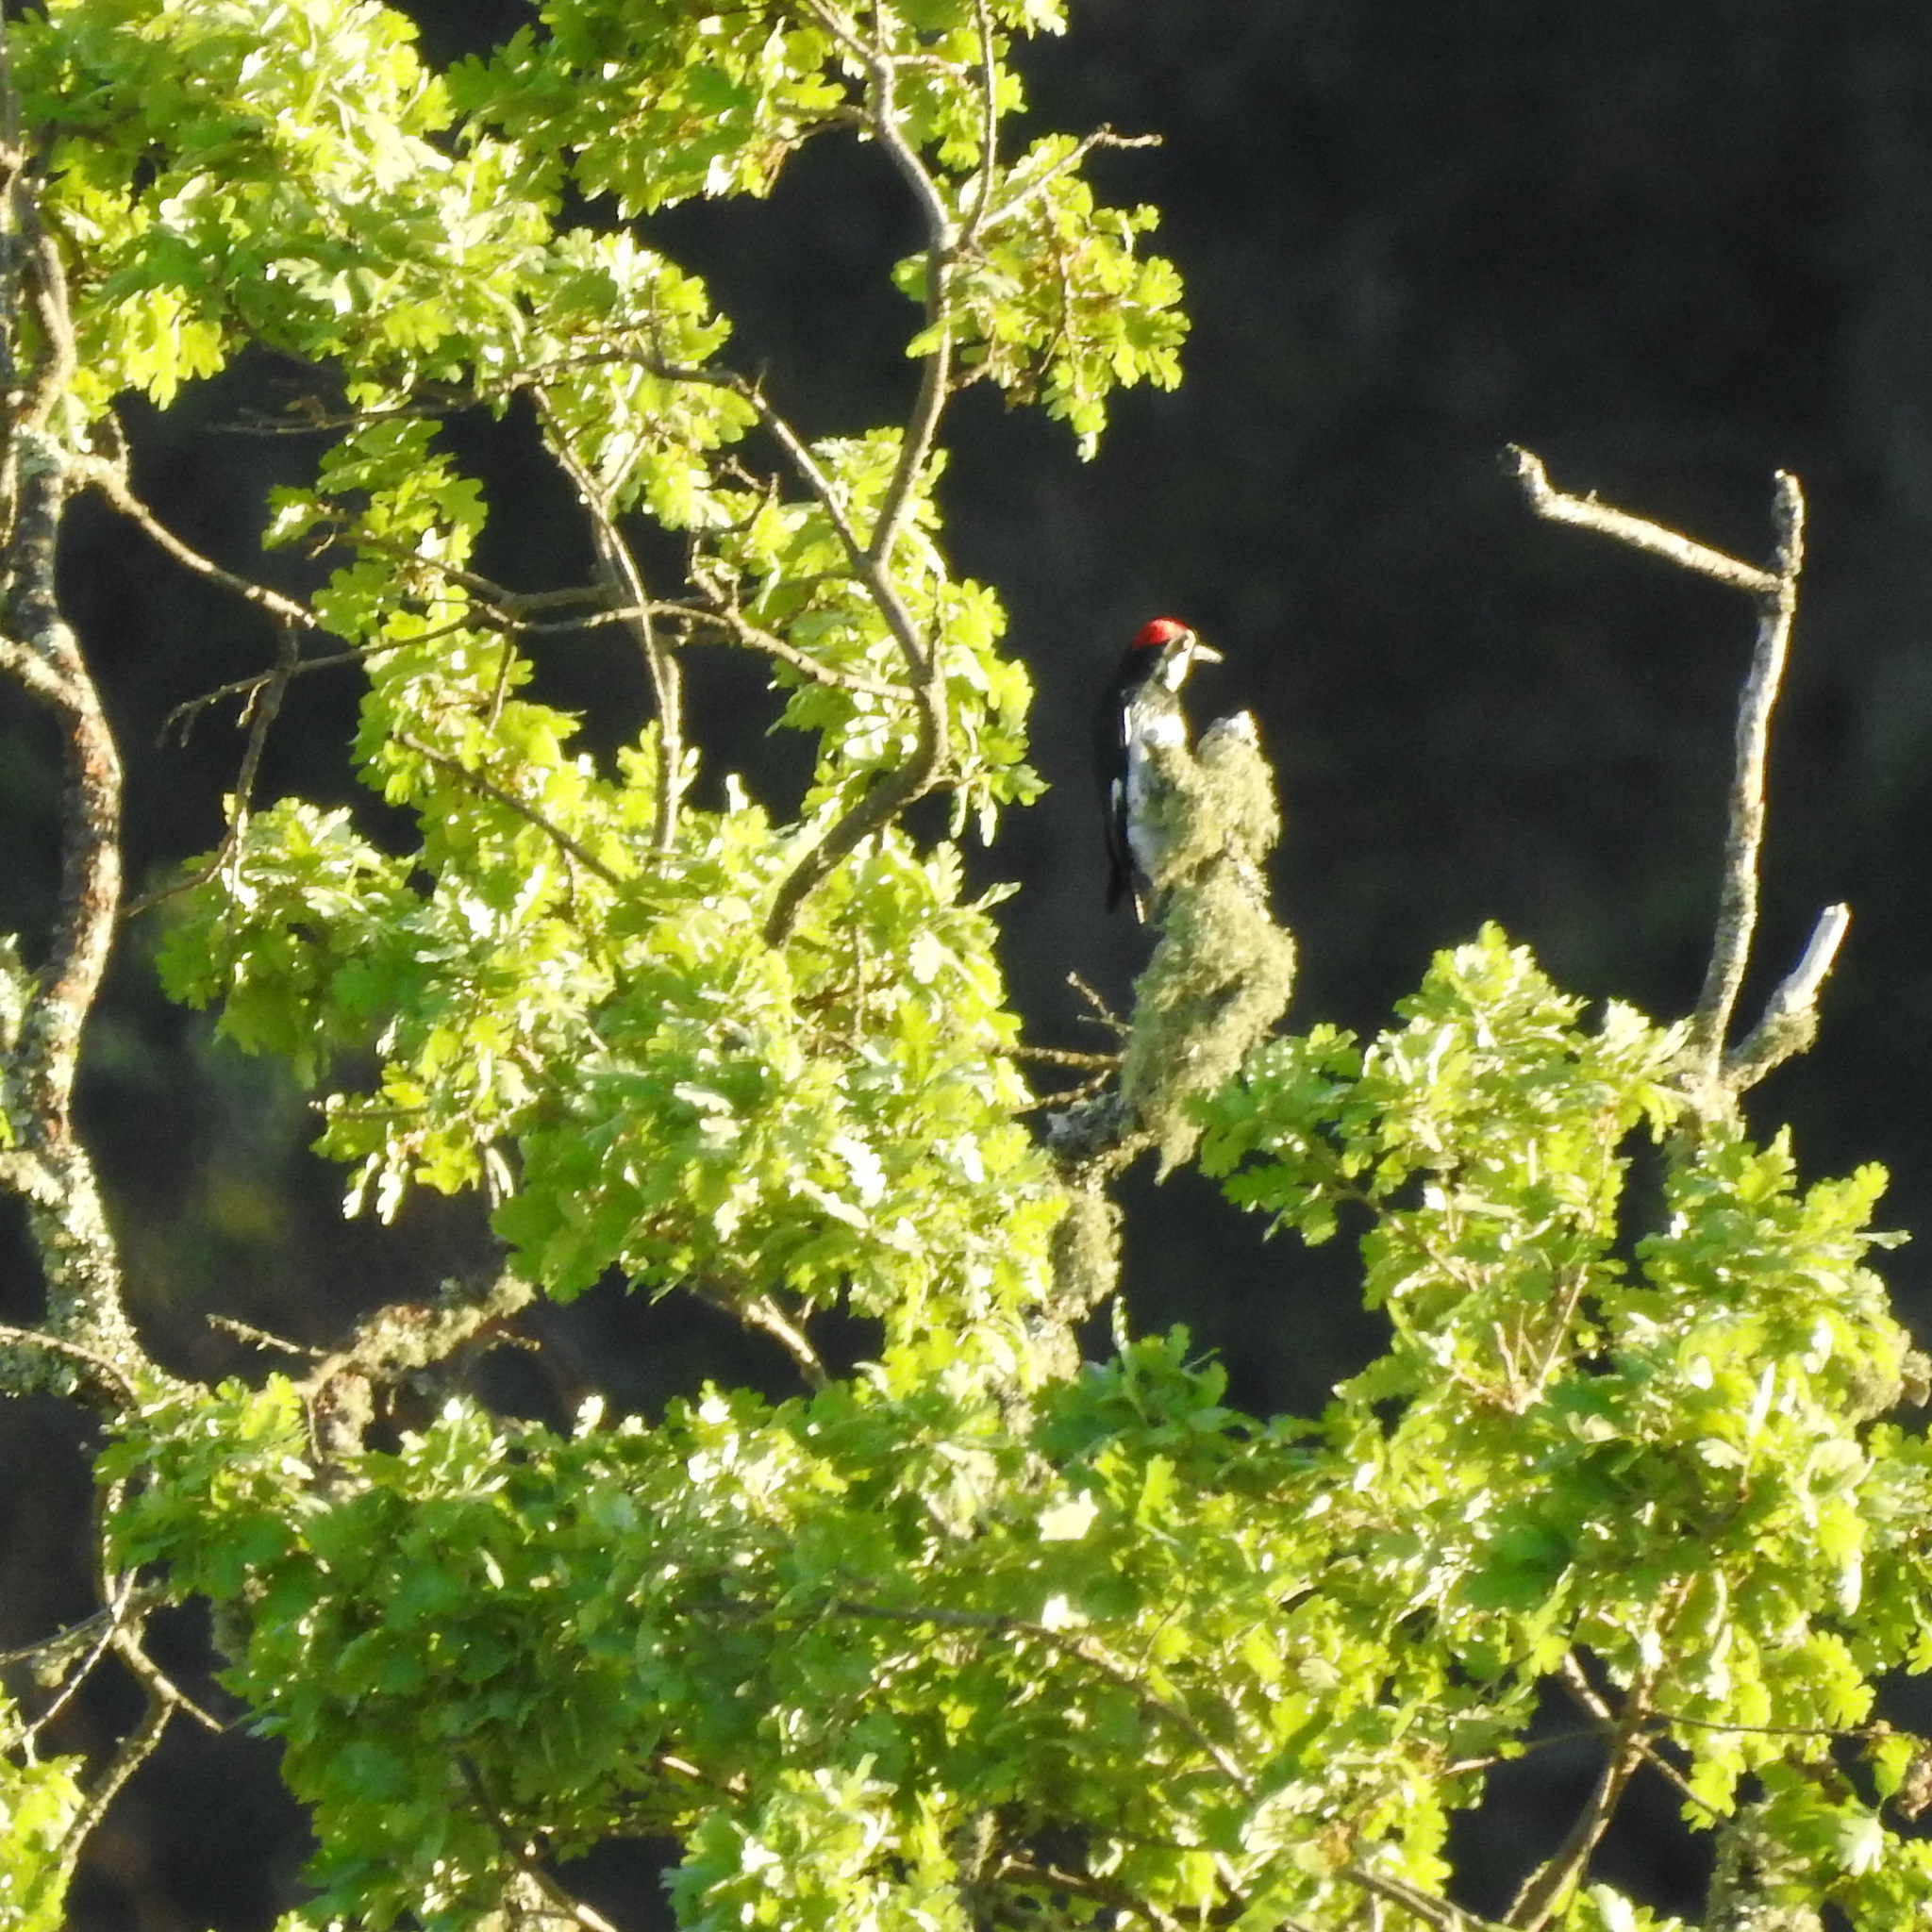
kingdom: Animalia
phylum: Chordata
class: Aves
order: Piciformes
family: Picidae
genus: Melanerpes
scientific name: Melanerpes formicivorus
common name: Acorn woodpecker
